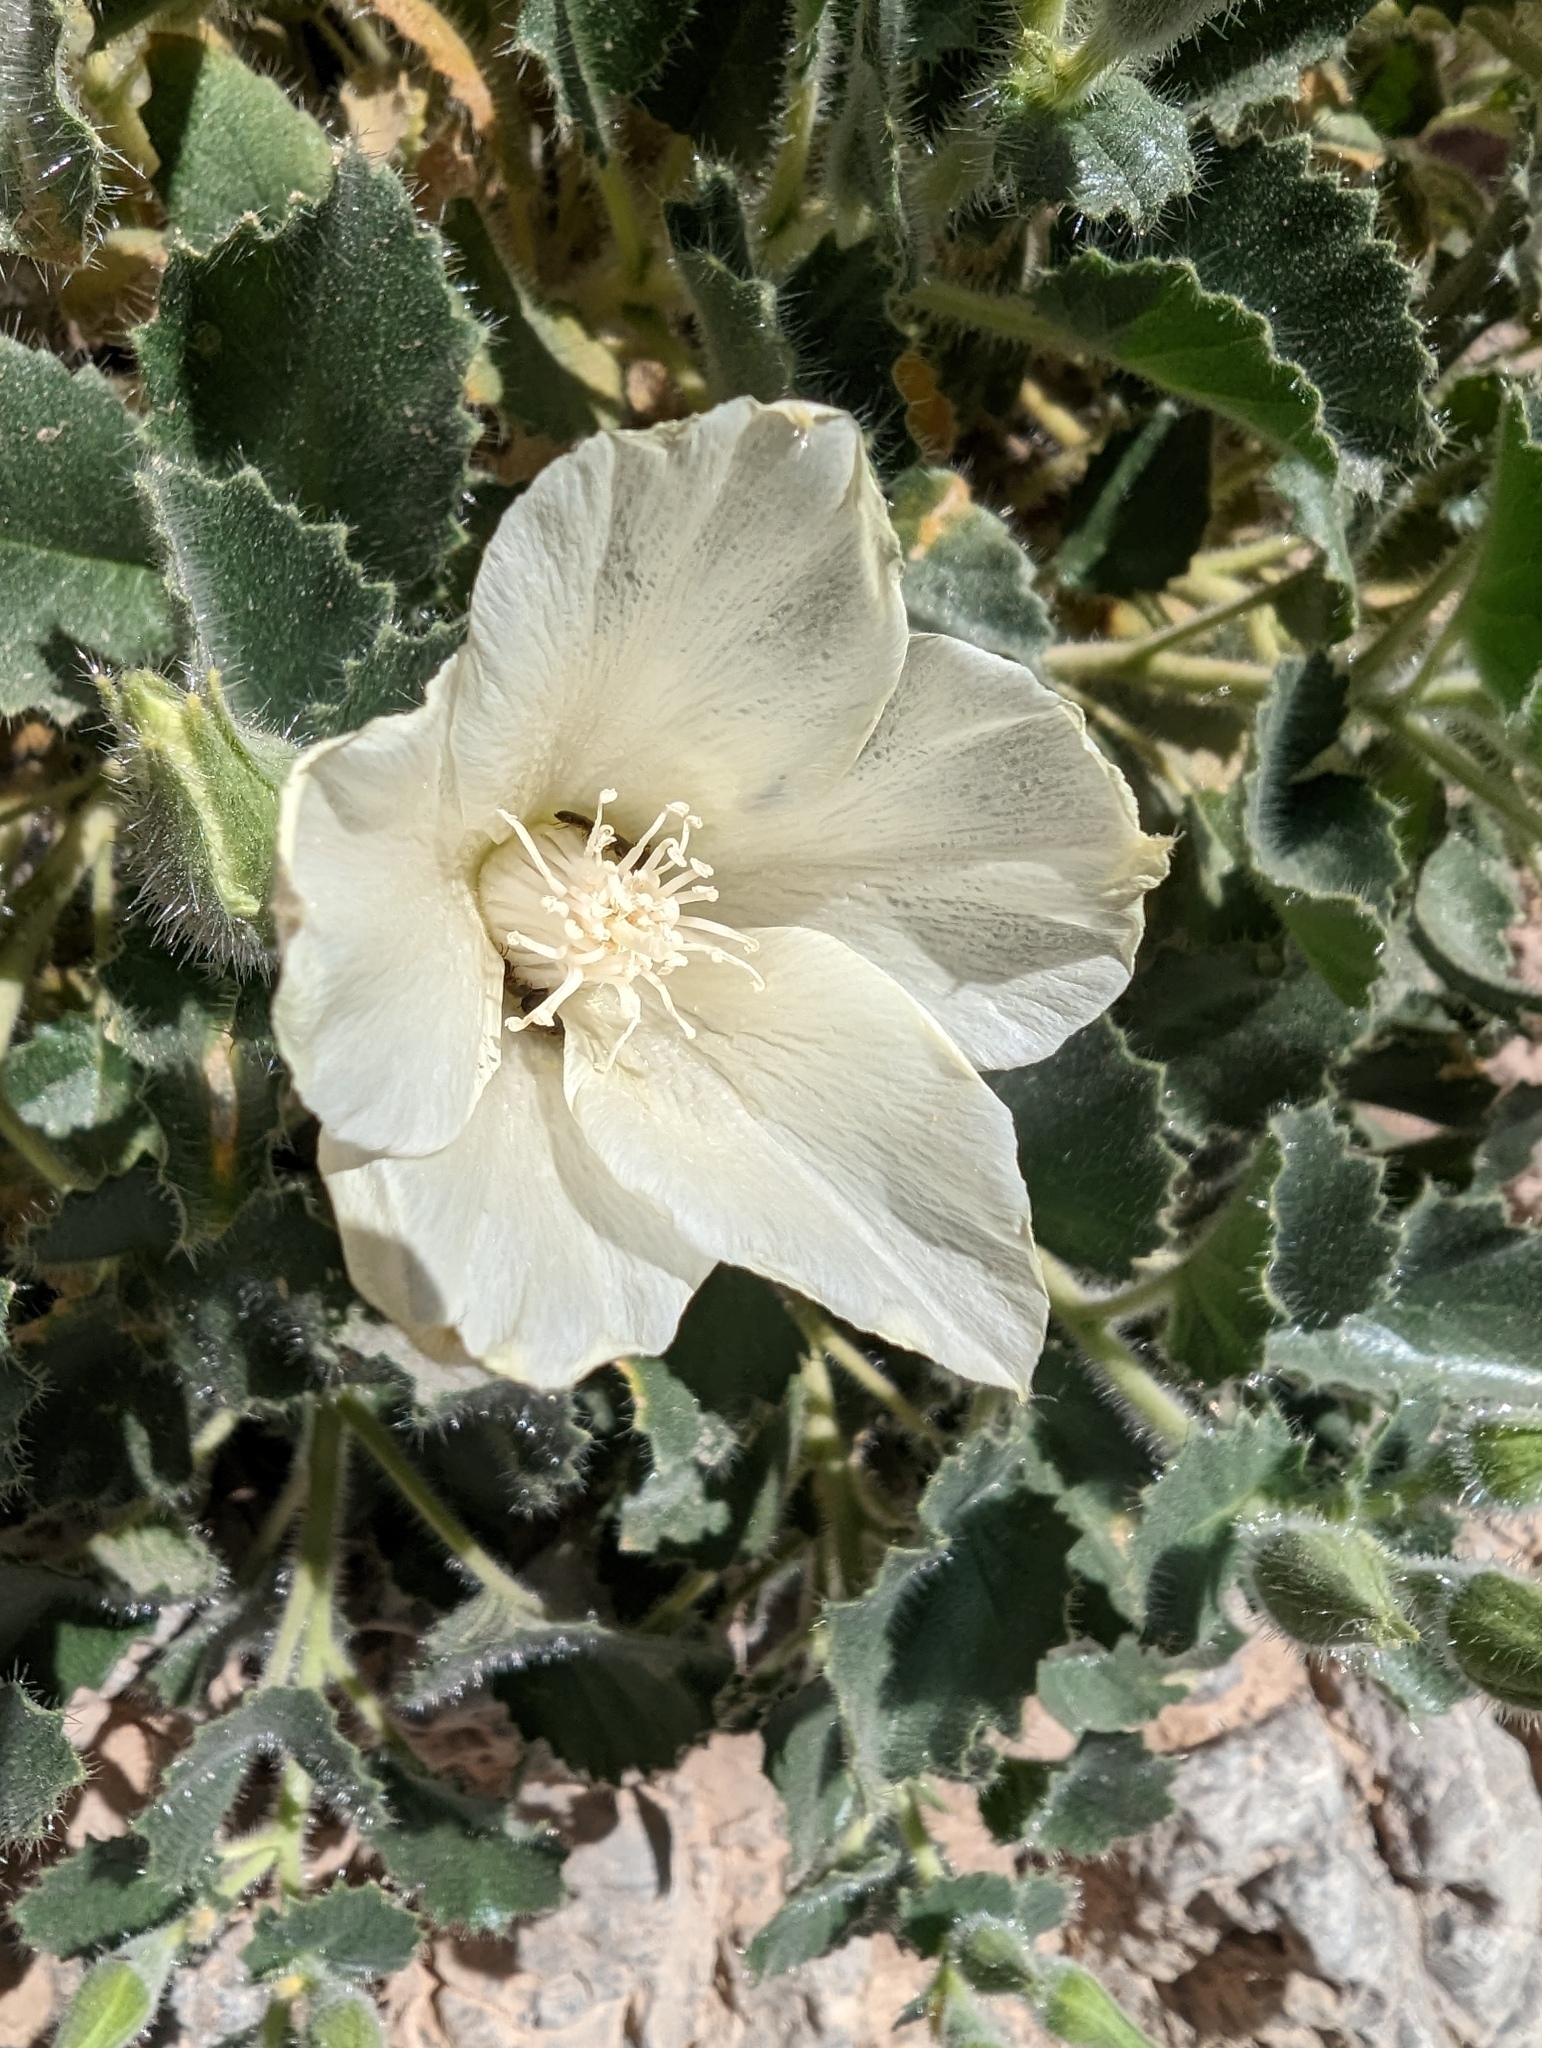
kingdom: Plantae
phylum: Tracheophyta
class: Magnoliopsida
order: Cornales
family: Loasaceae
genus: Eucnide
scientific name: Eucnide urens
